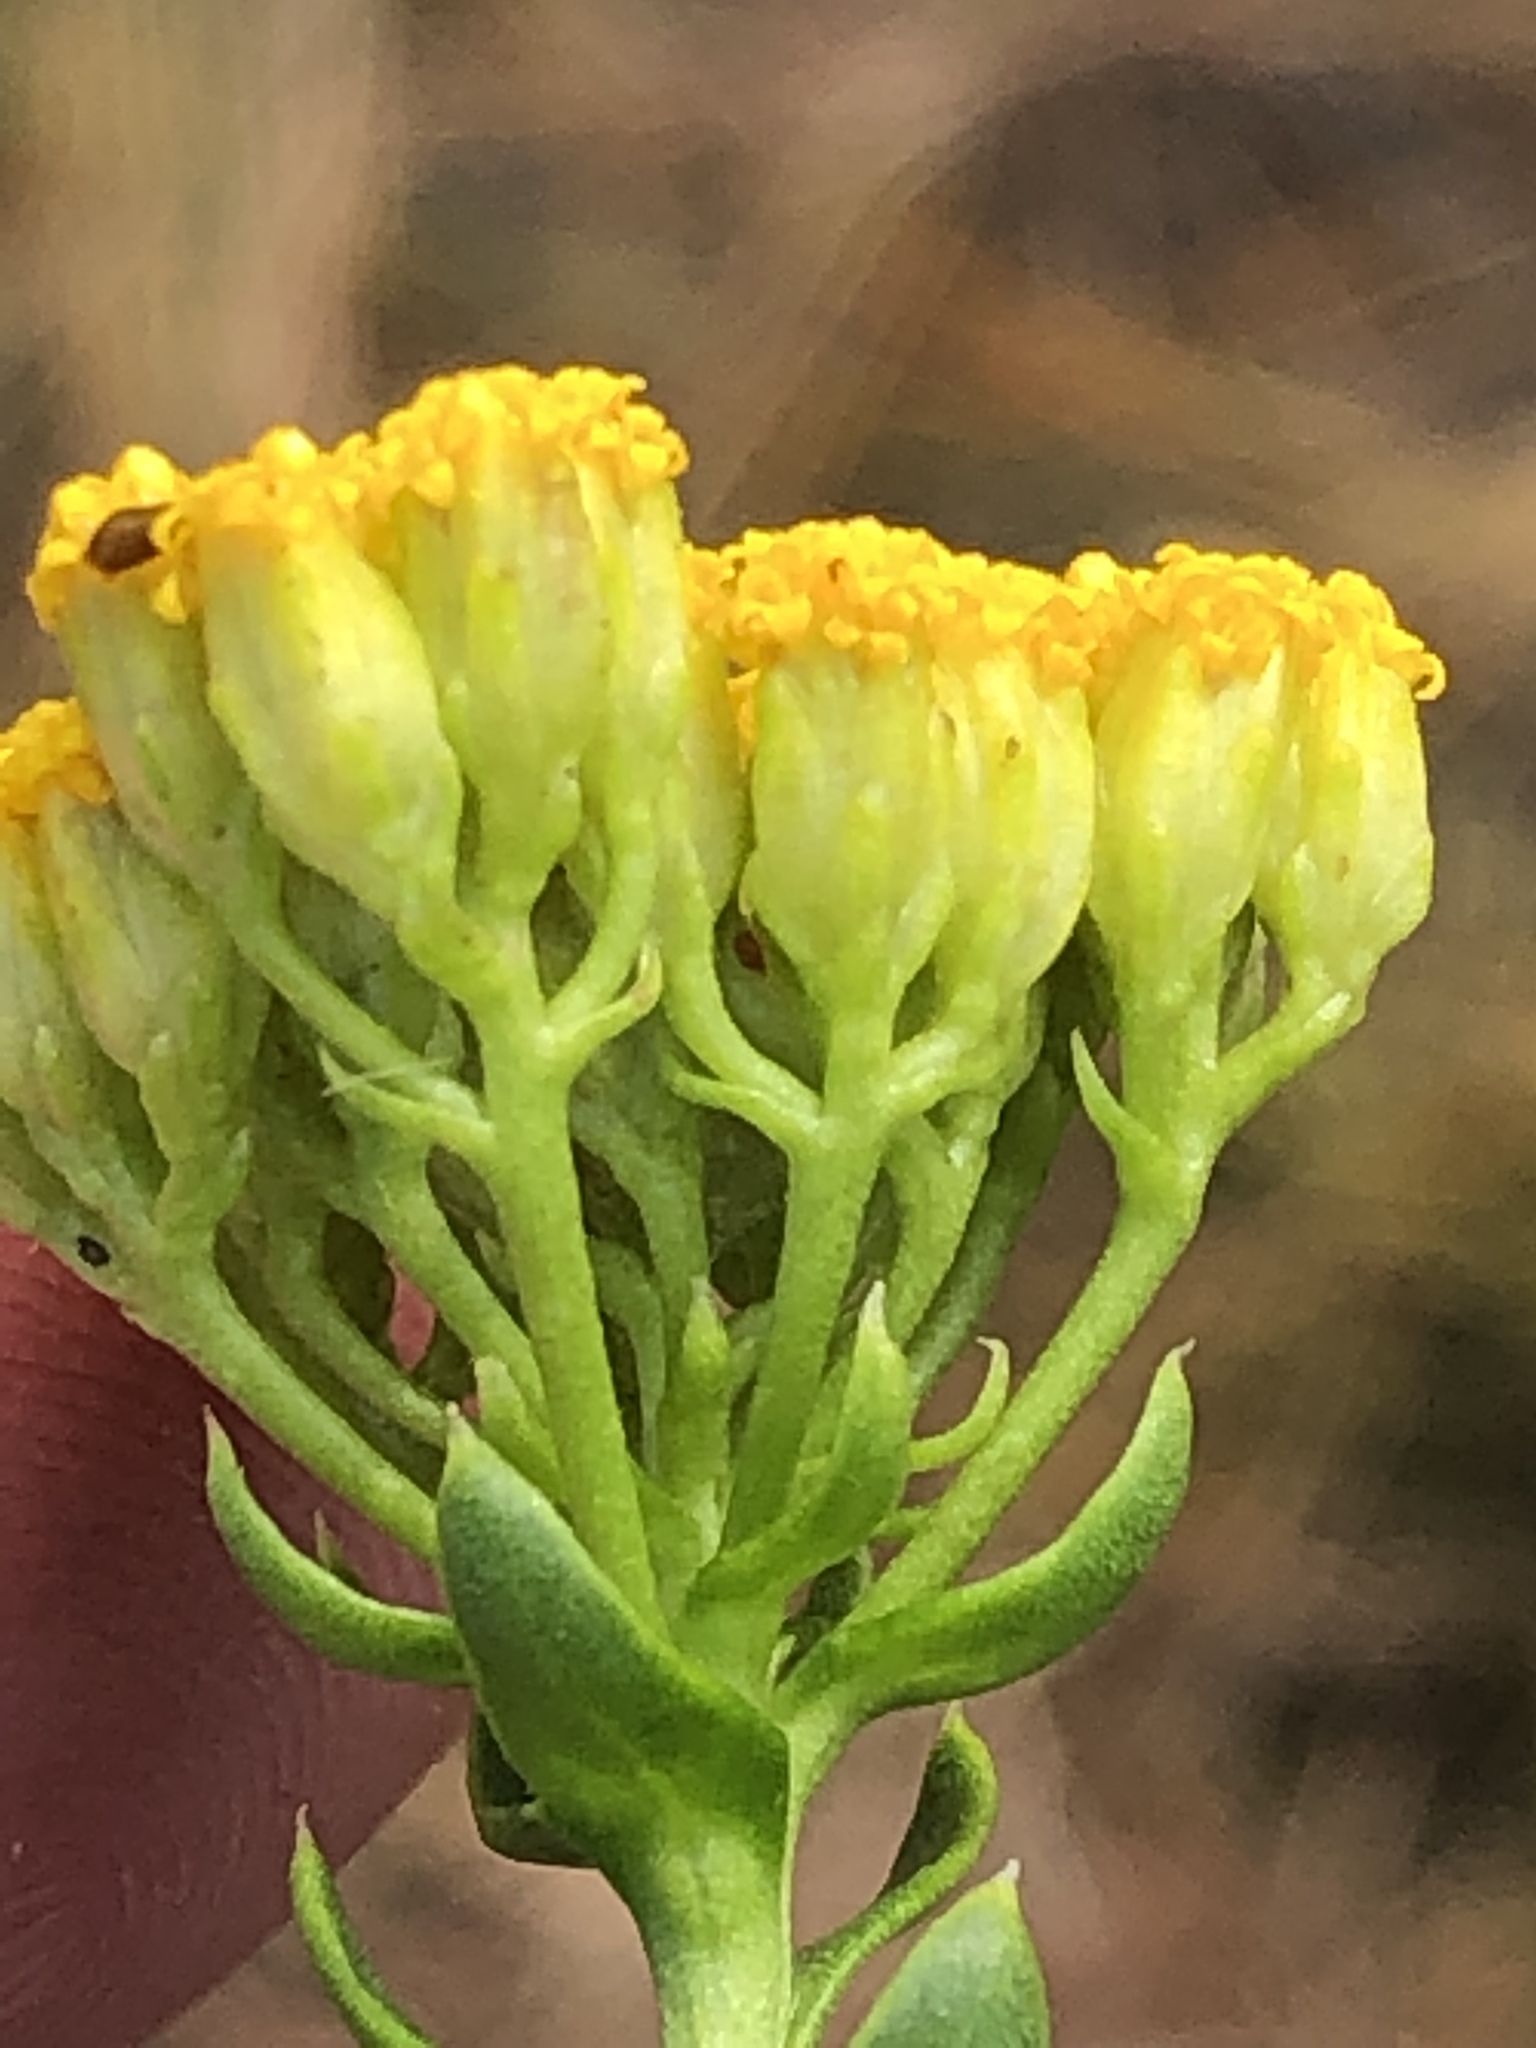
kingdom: Plantae
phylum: Tracheophyta
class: Magnoliopsida
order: Asterales
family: Asteraceae
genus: Athanasia
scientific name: Athanasia dentata
